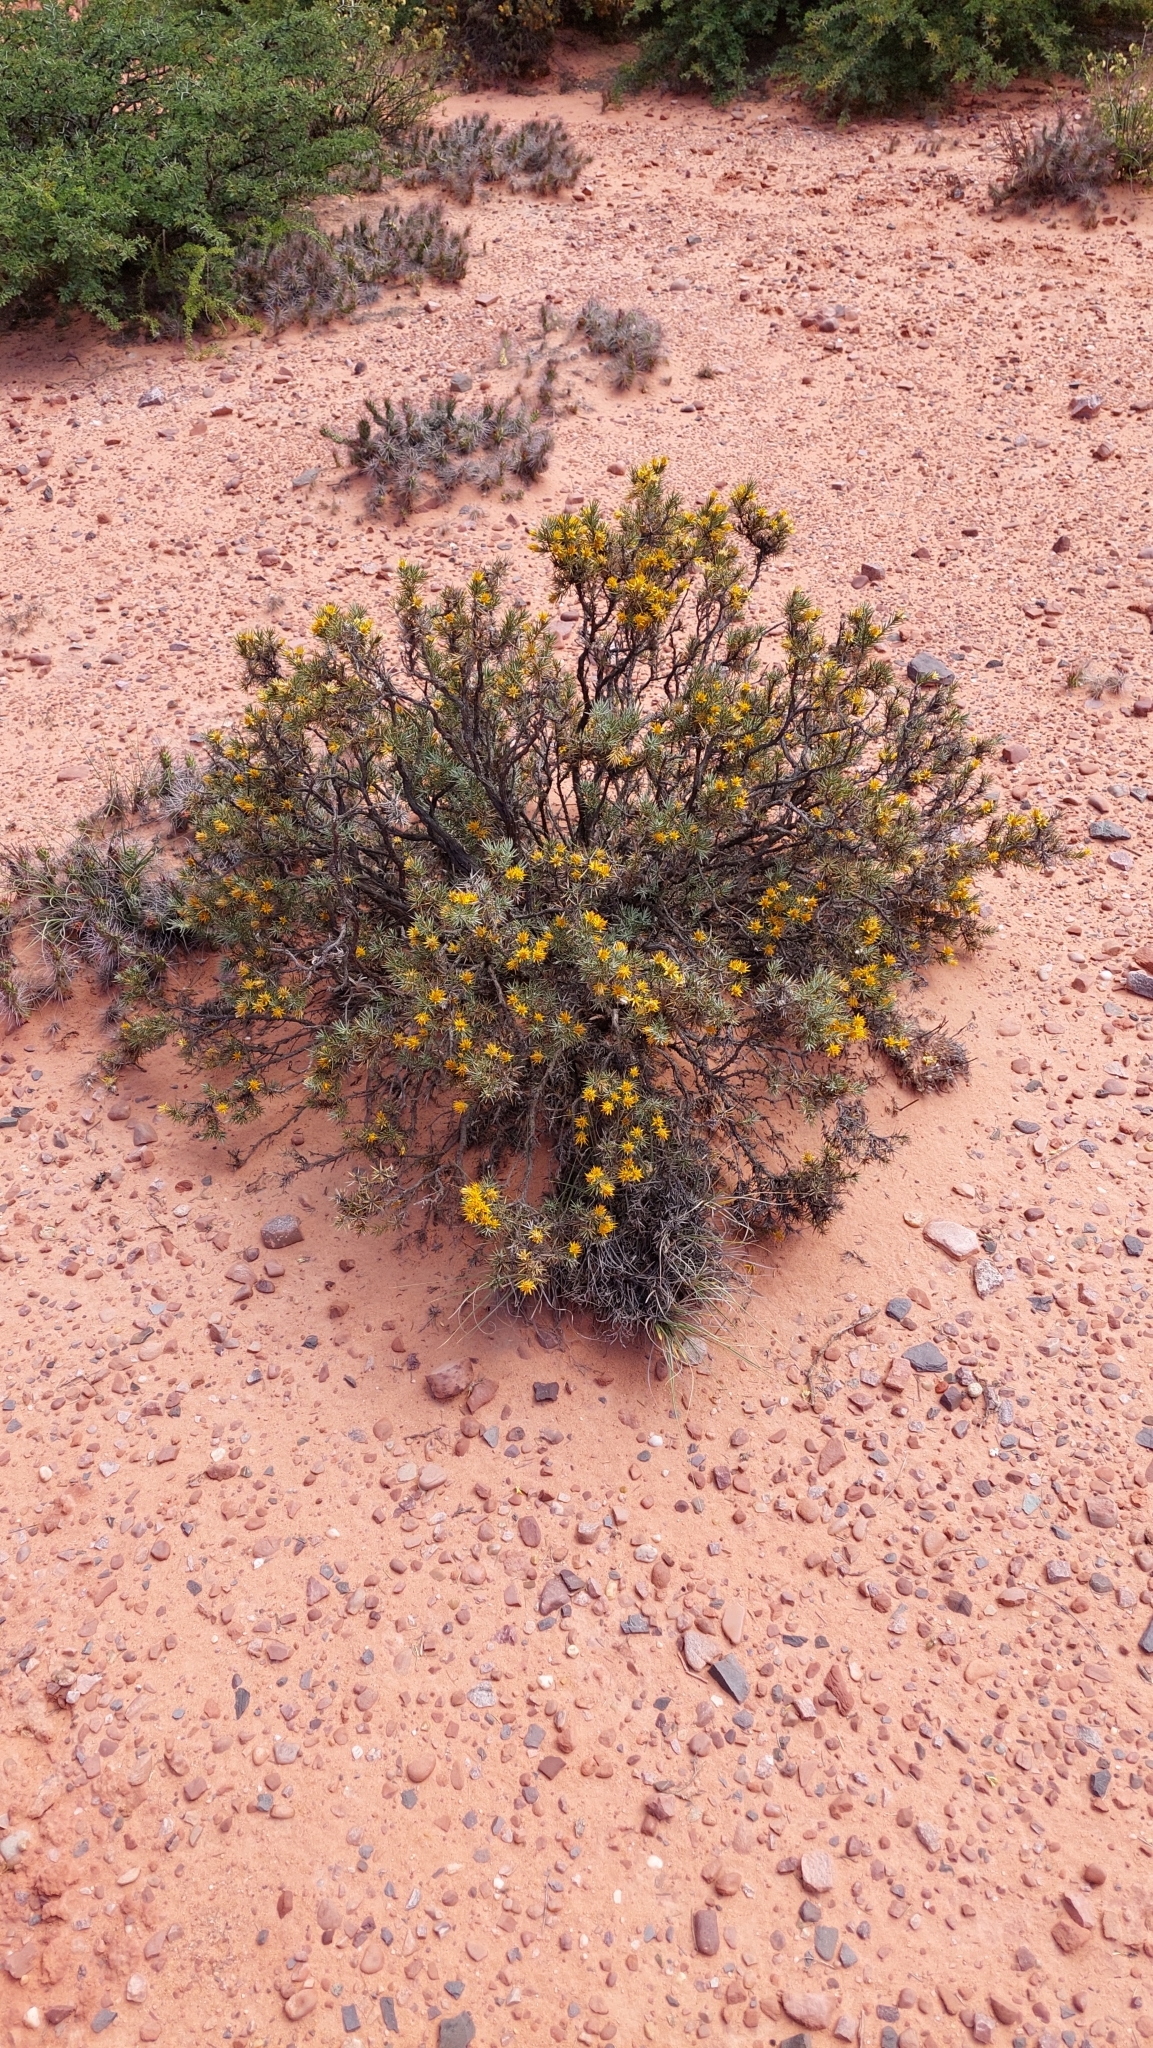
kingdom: Plantae
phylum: Tracheophyta
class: Magnoliopsida
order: Asterales
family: Asteraceae
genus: Chuquiraga
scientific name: Chuquiraga erinacea
